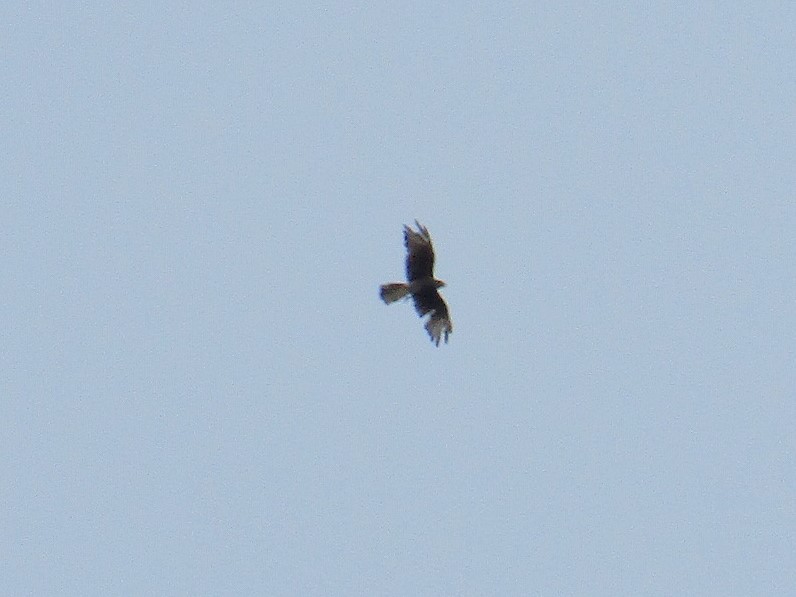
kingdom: Animalia
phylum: Chordata
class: Aves
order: Falconiformes
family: Falconidae
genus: Daptrius
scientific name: Daptrius
